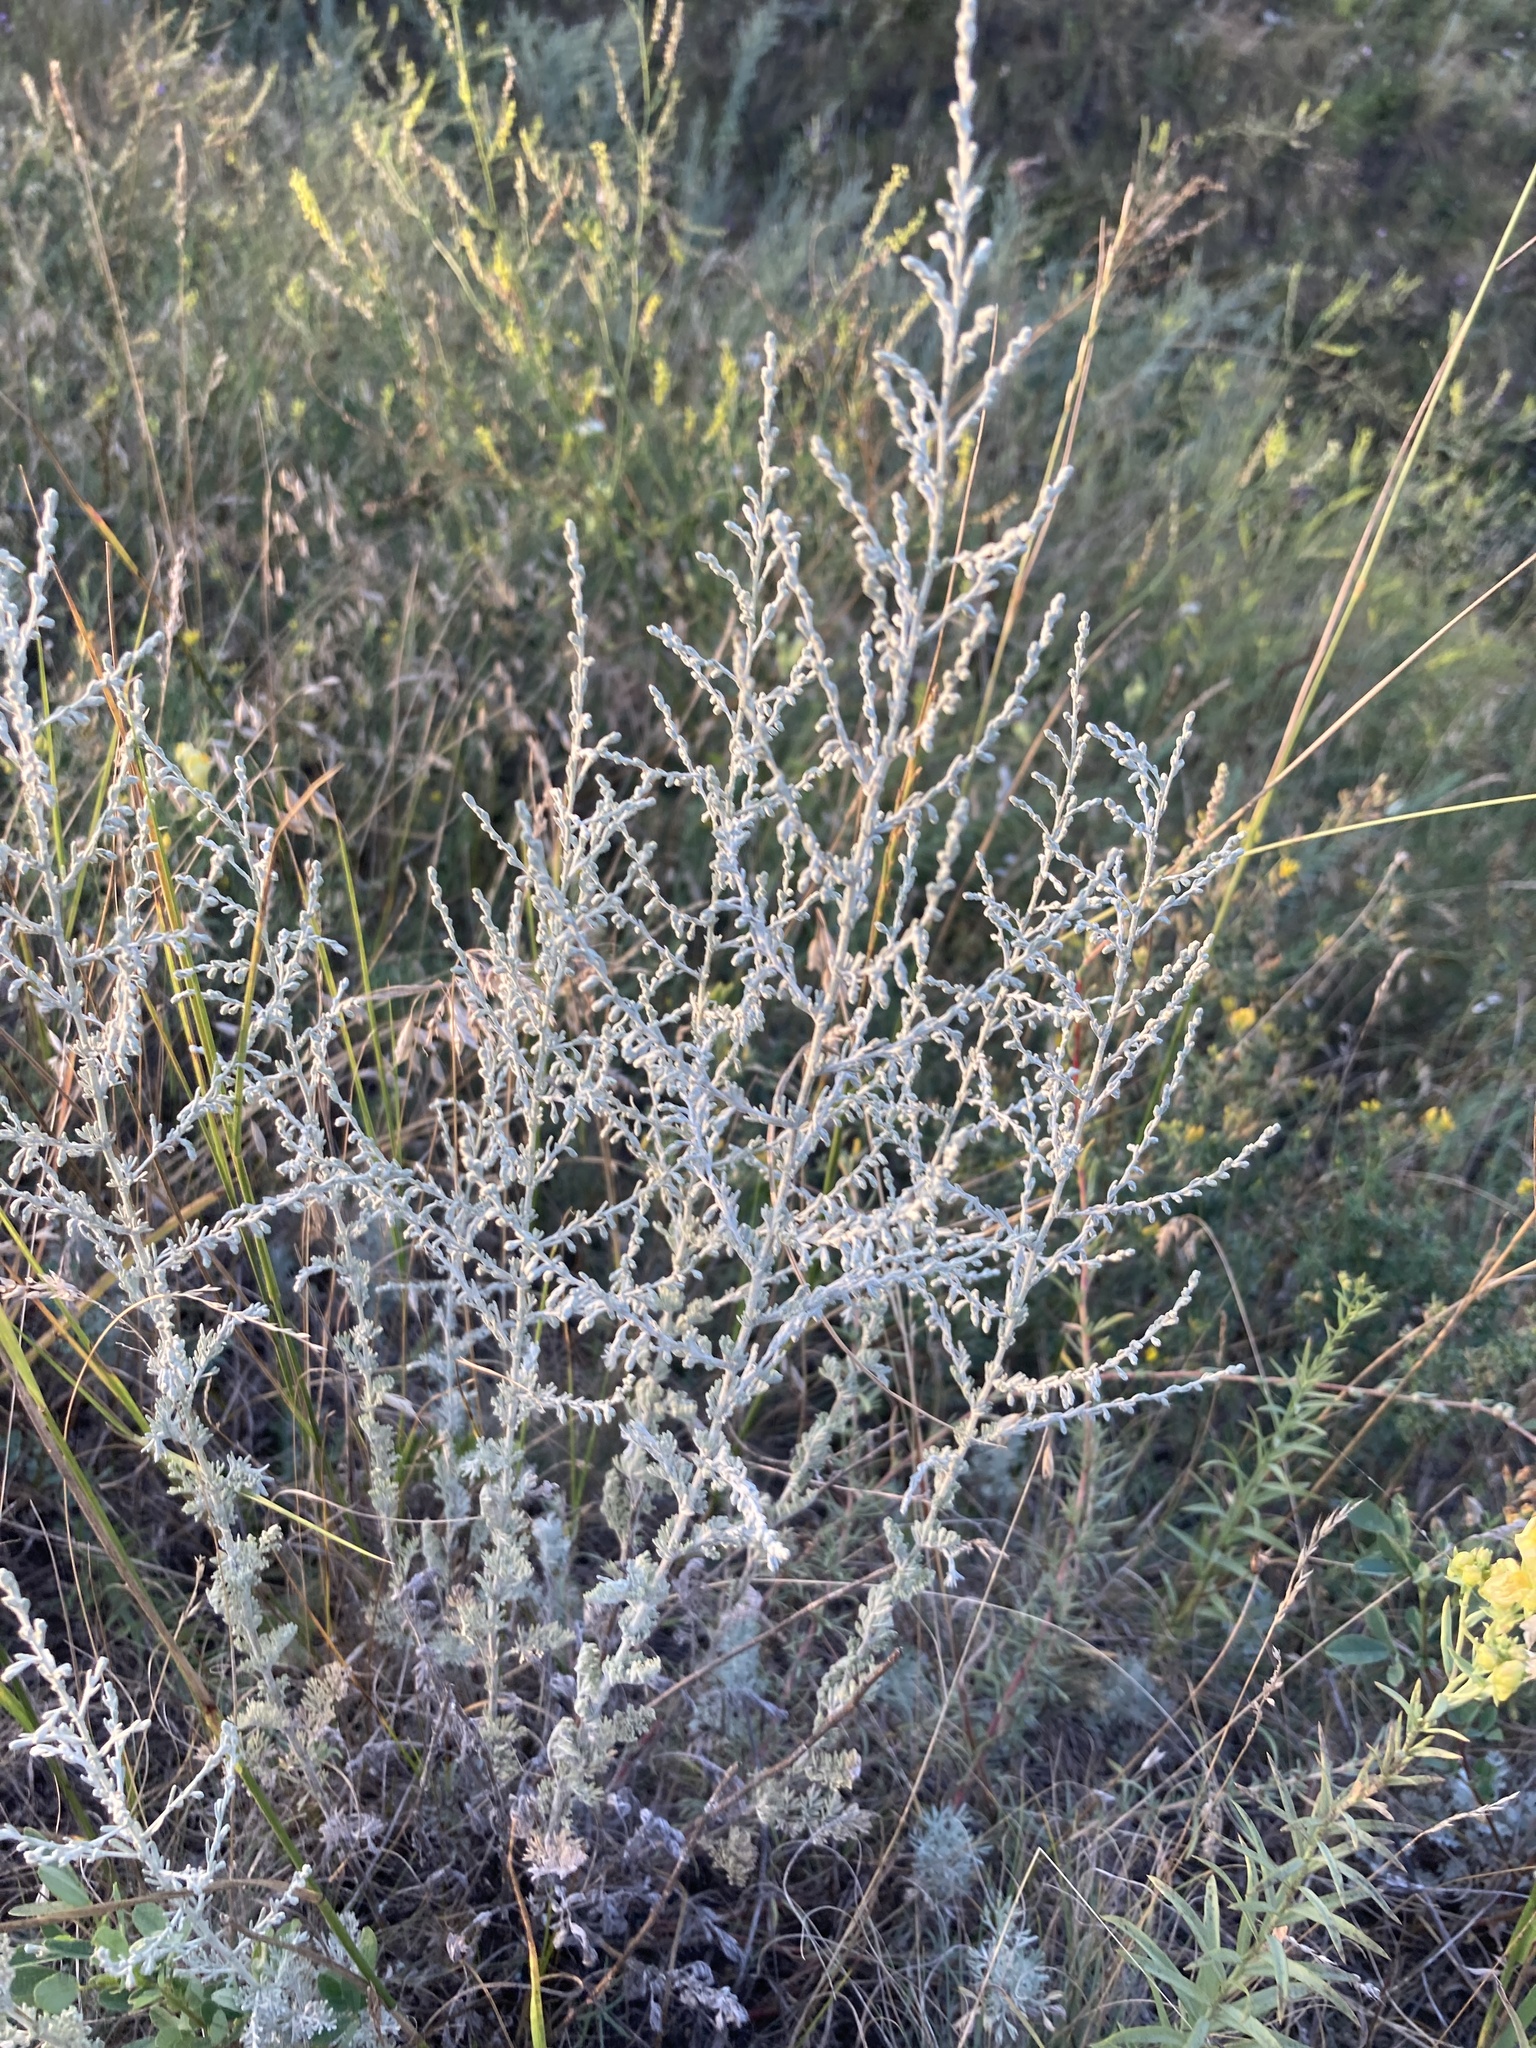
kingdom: Plantae
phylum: Tracheophyta
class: Magnoliopsida
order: Asterales
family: Asteraceae
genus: Artemisia
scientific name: Artemisia austriaca
